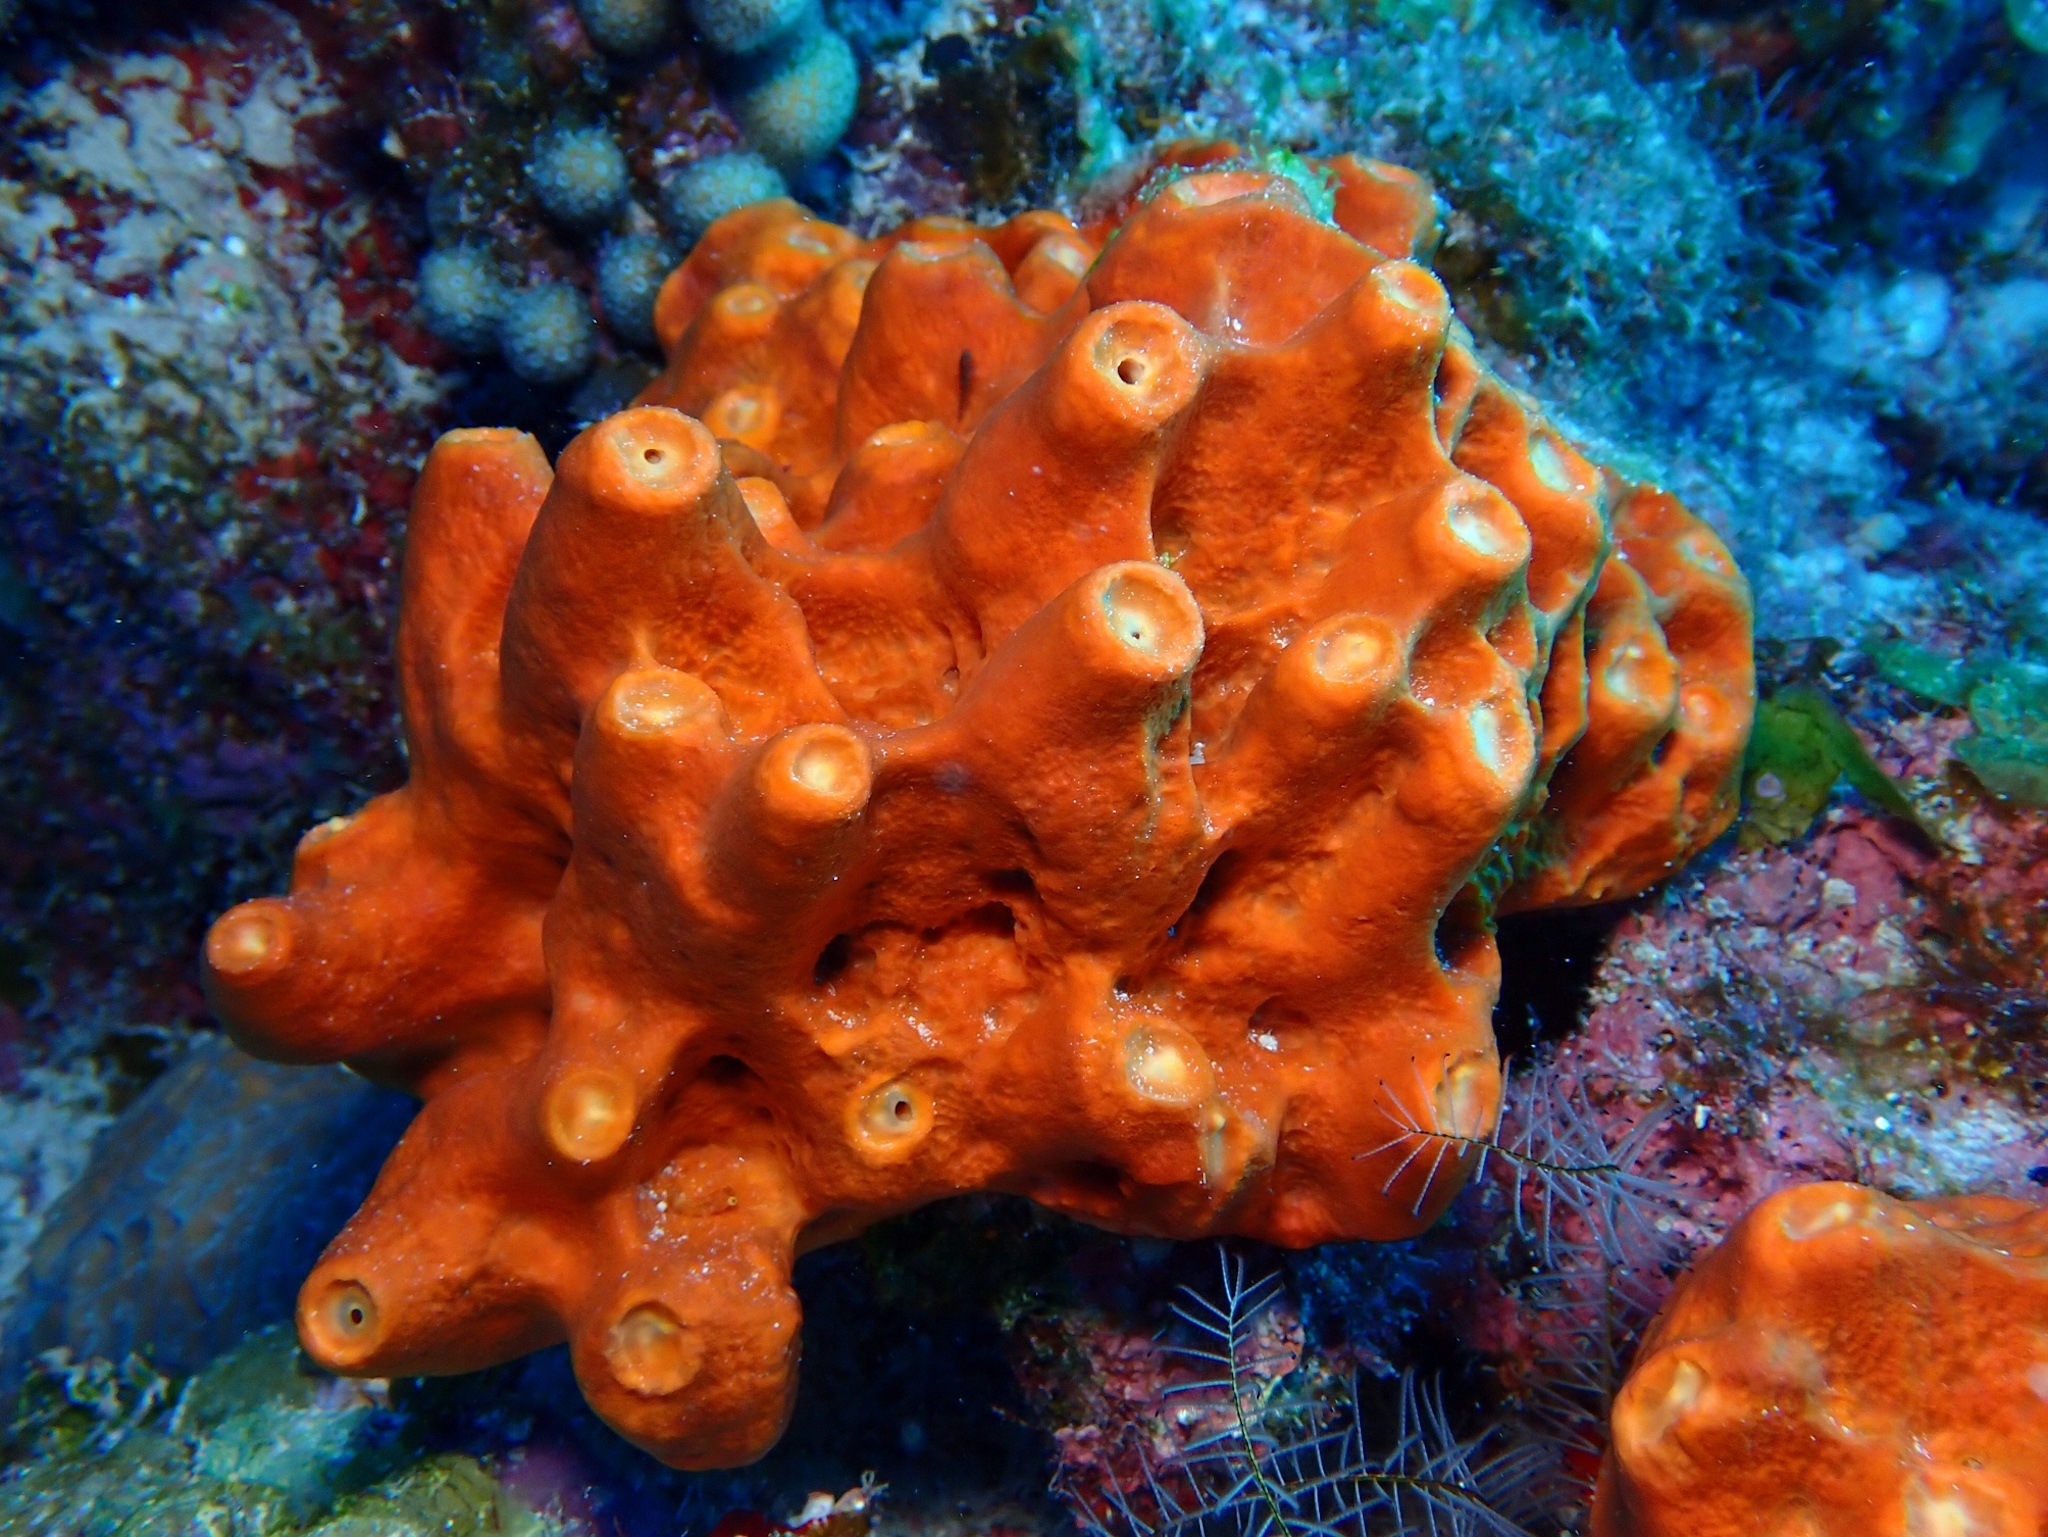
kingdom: Animalia
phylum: Porifera
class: Demospongiae
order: Axinellida
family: Raspailiidae
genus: Ectyoplasia
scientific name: Ectyoplasia ferox
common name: Brown encrusting octopus sponge
